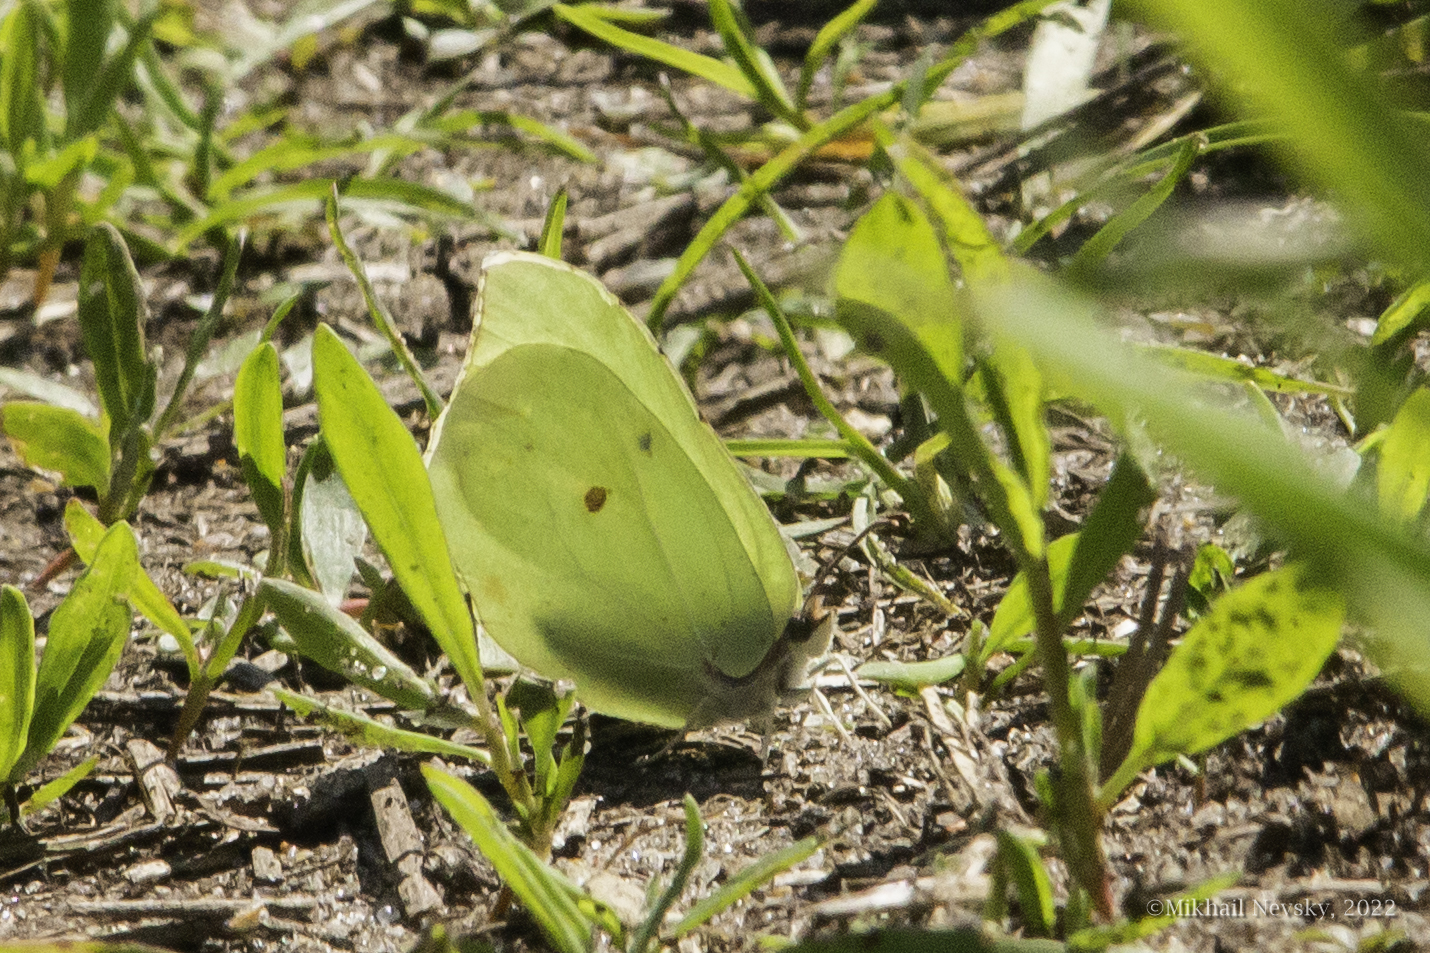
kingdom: Animalia
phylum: Arthropoda
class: Insecta
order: Lepidoptera
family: Pieridae
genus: Gonepteryx
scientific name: Gonepteryx rhamni
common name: Brimstone
